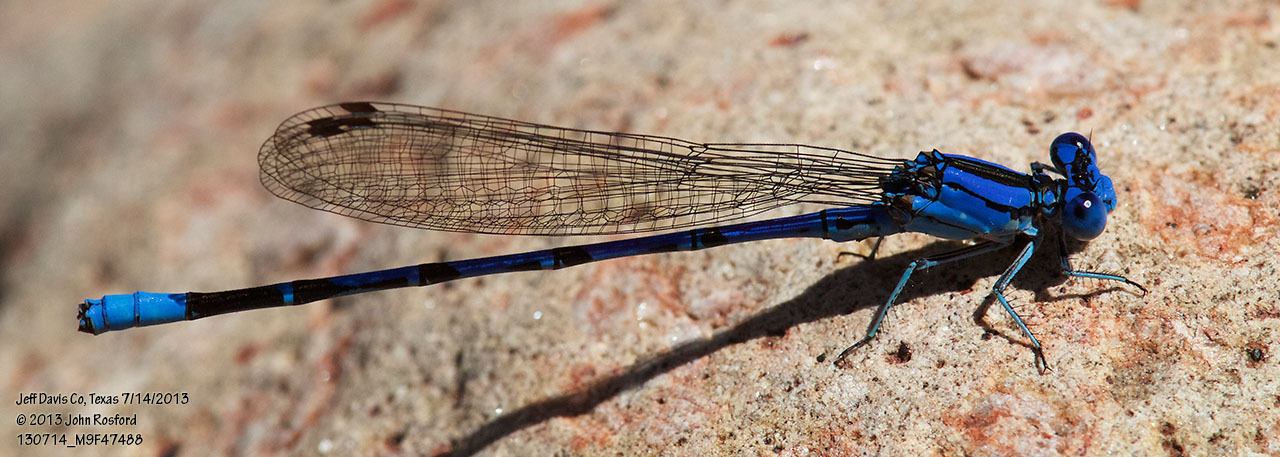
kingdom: Animalia
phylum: Arthropoda
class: Insecta
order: Odonata
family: Coenagrionidae
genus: Argia
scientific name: Argia funebris
